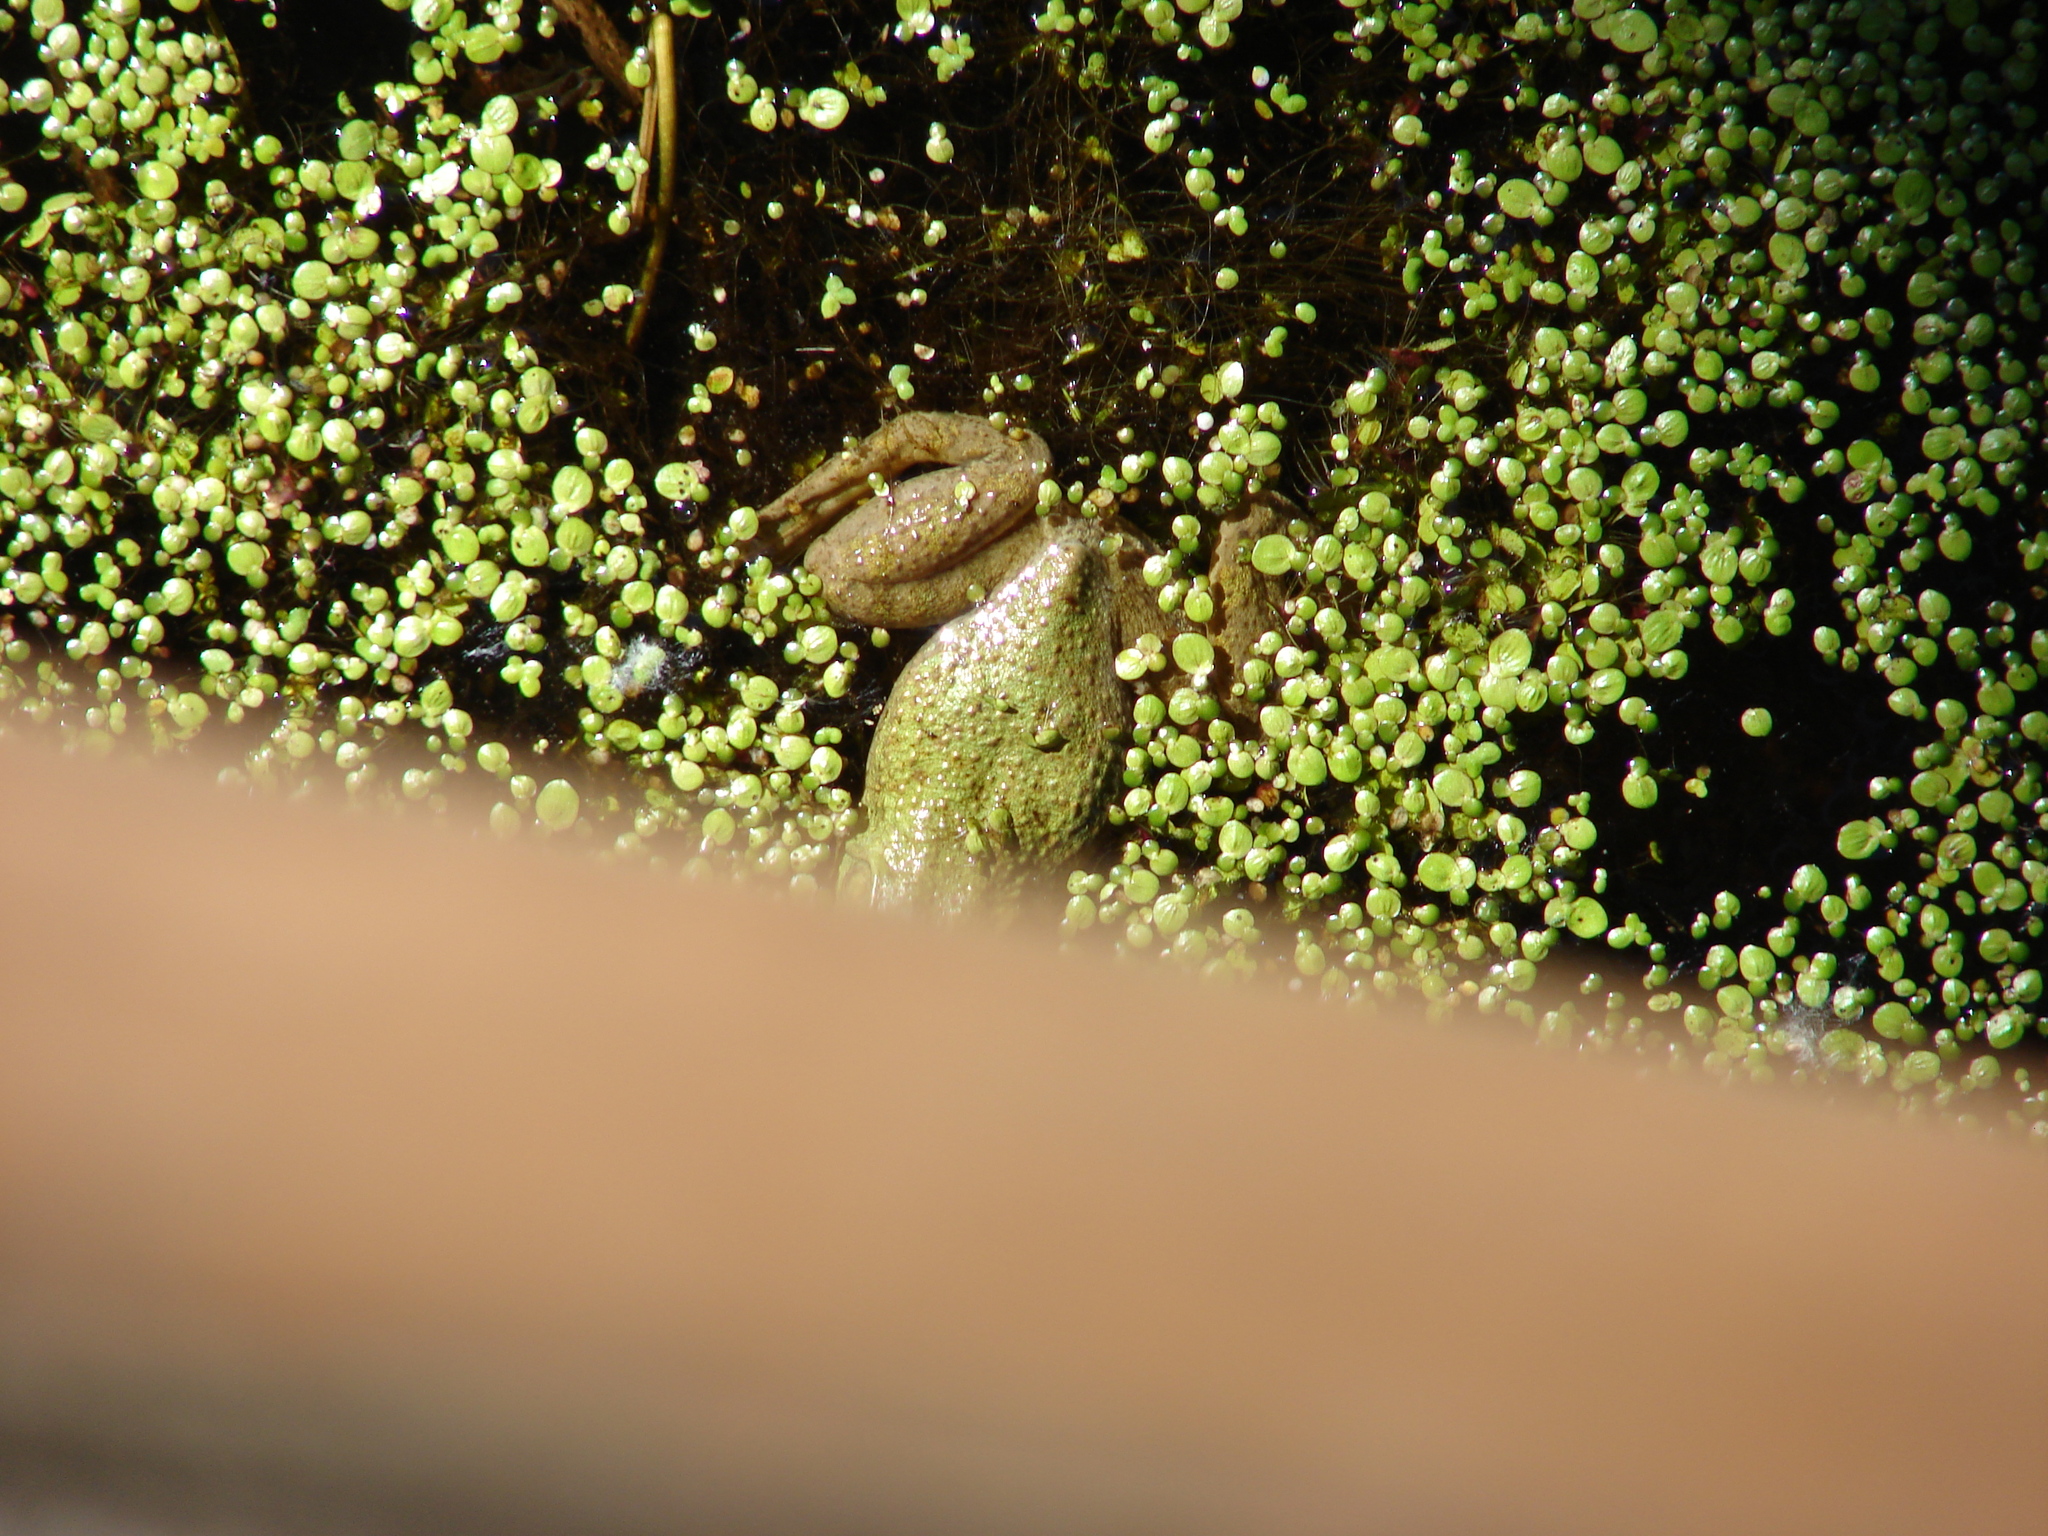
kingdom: Animalia
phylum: Chordata
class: Amphibia
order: Anura
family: Ranidae
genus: Lithobates
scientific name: Lithobates catesbeianus
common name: American bullfrog
